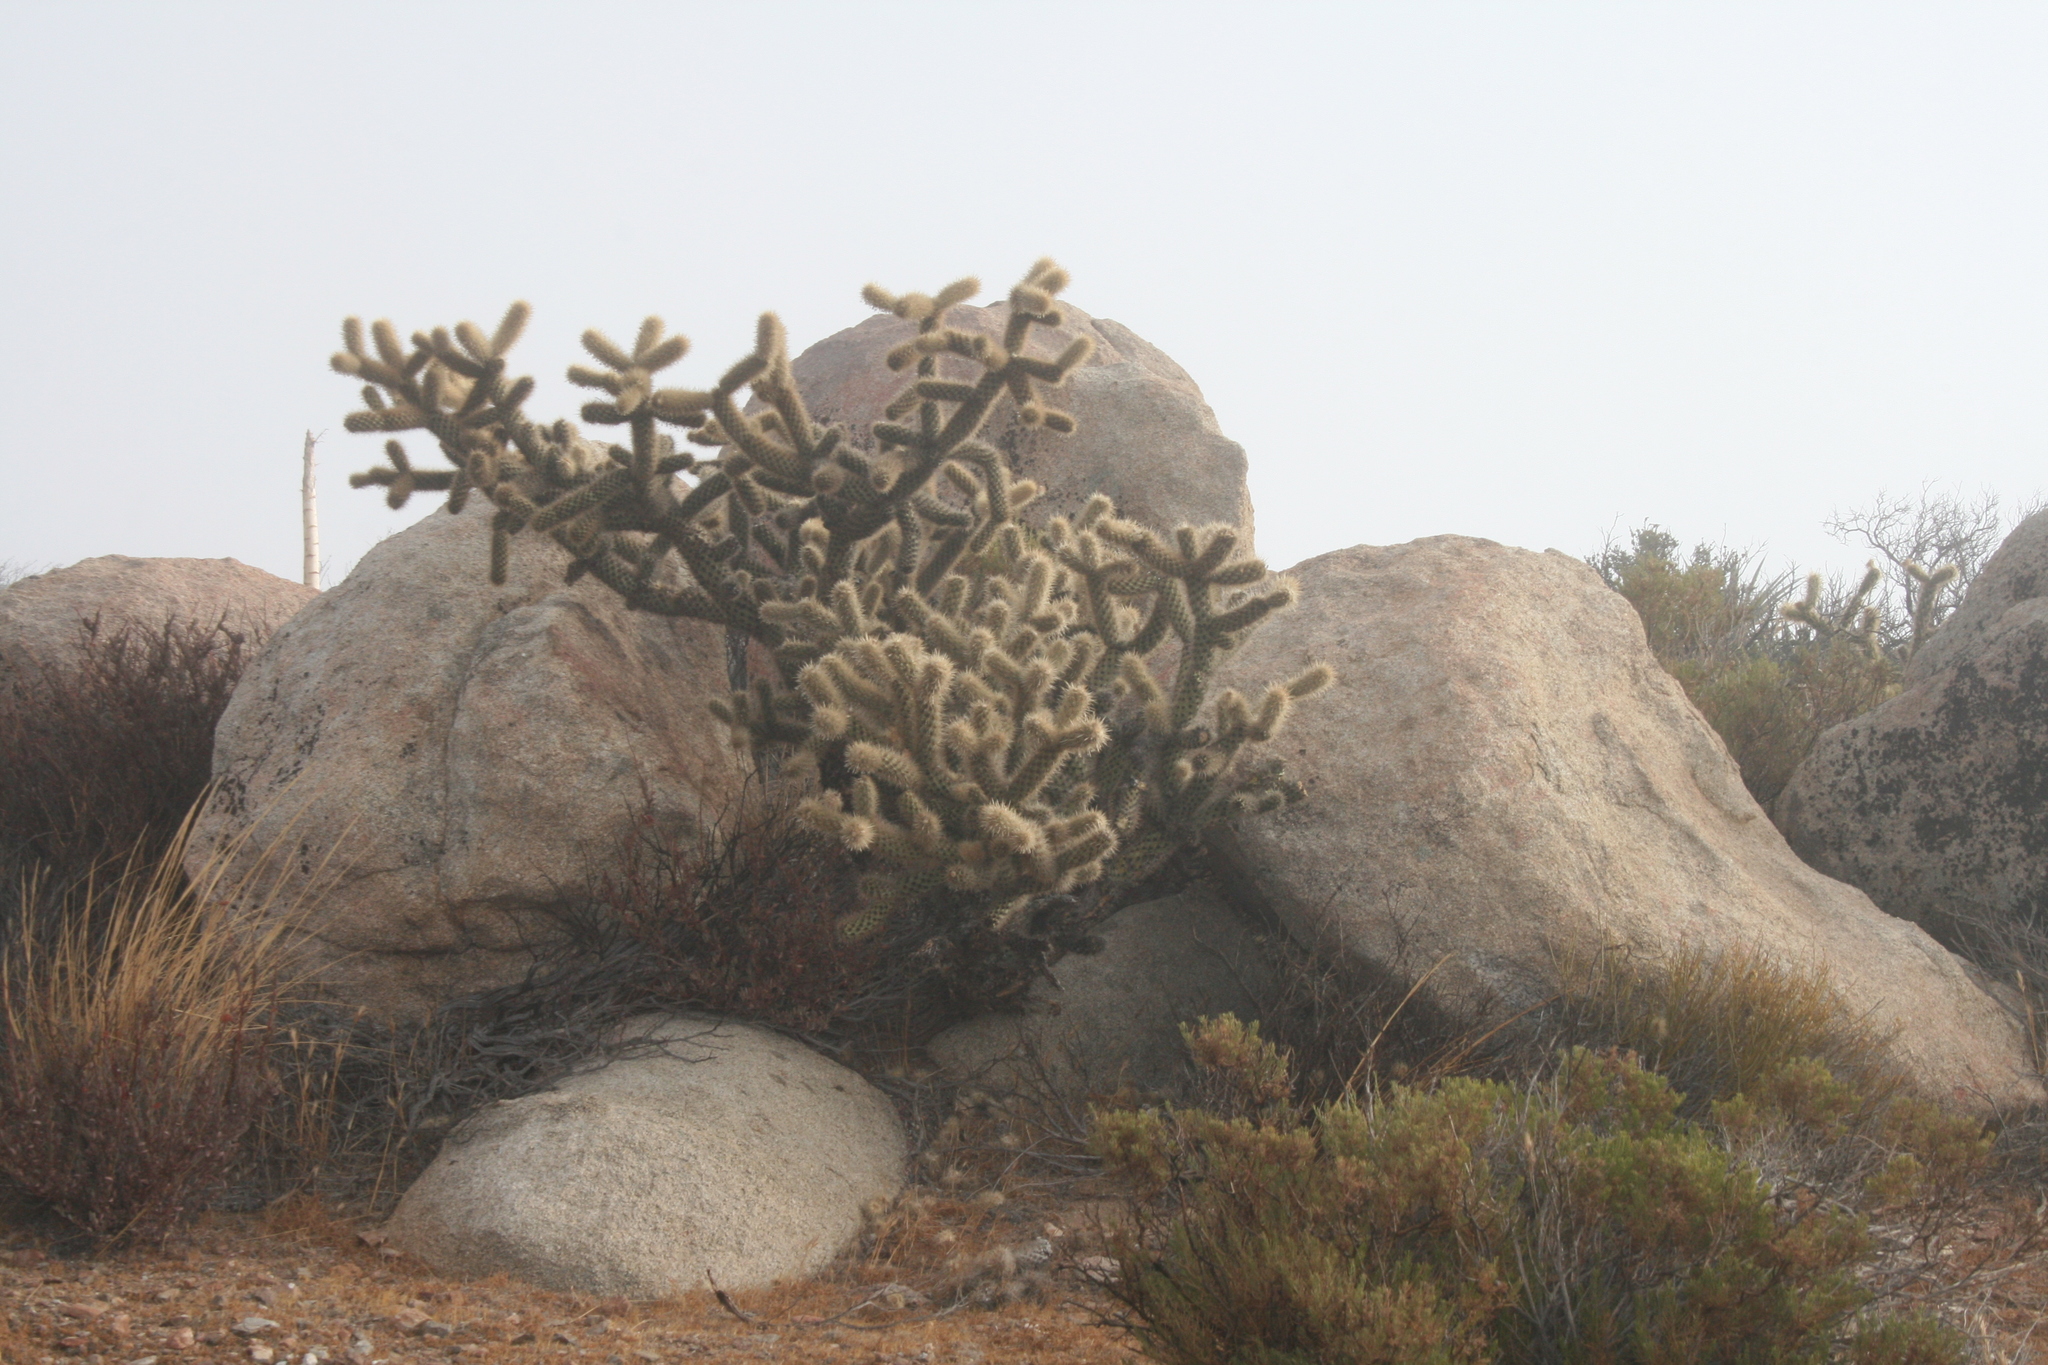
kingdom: Plantae
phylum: Tracheophyta
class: Magnoliopsida
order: Caryophyllales
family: Cactaceae
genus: Cylindropuntia
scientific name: Cylindropuntia wolfii
